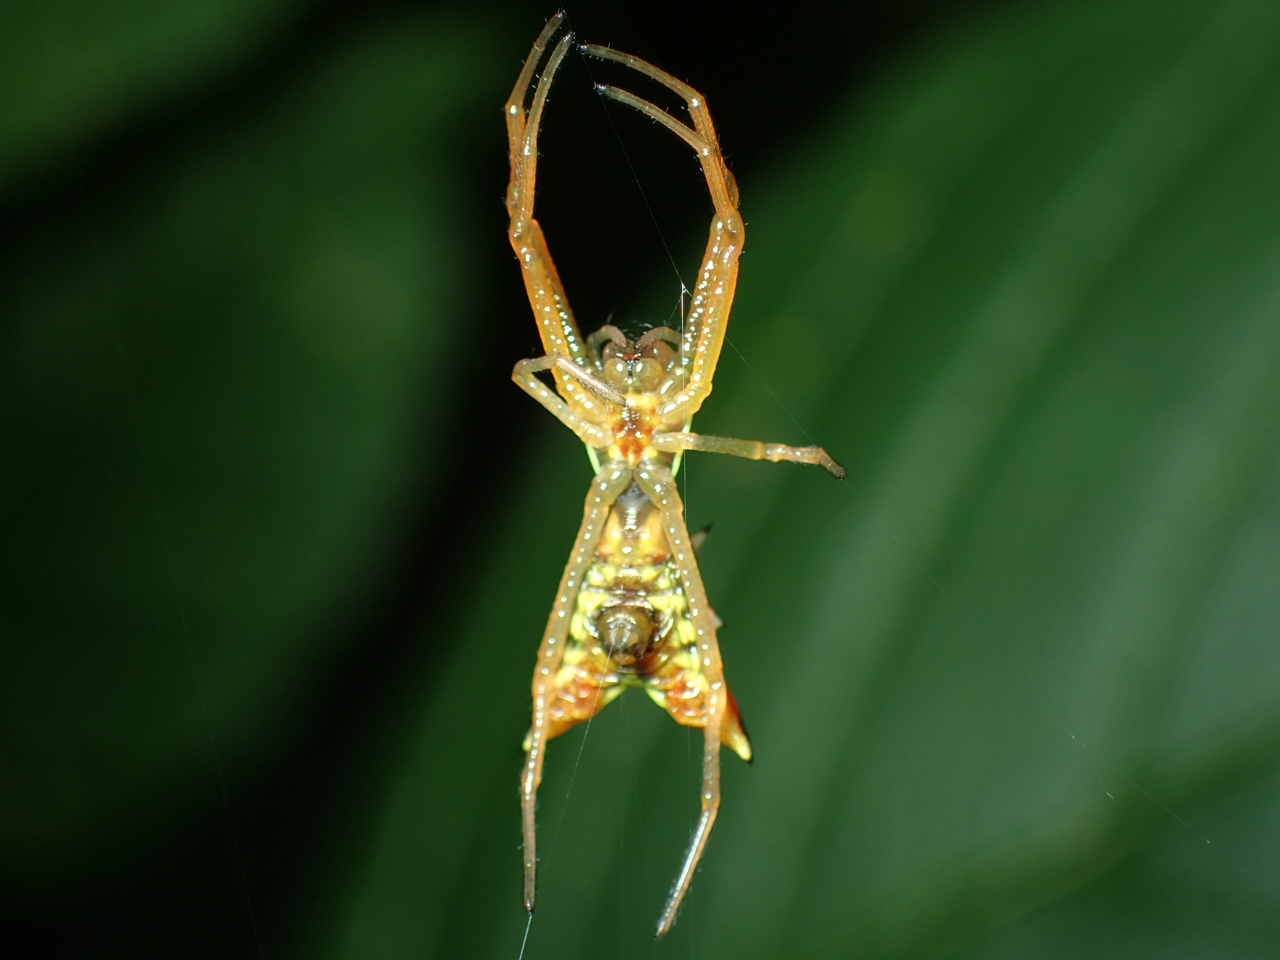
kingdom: Animalia
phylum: Arthropoda
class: Arachnida
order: Araneae
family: Araneidae
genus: Micrathena
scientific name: Micrathena sagittata
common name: Orb weavers
